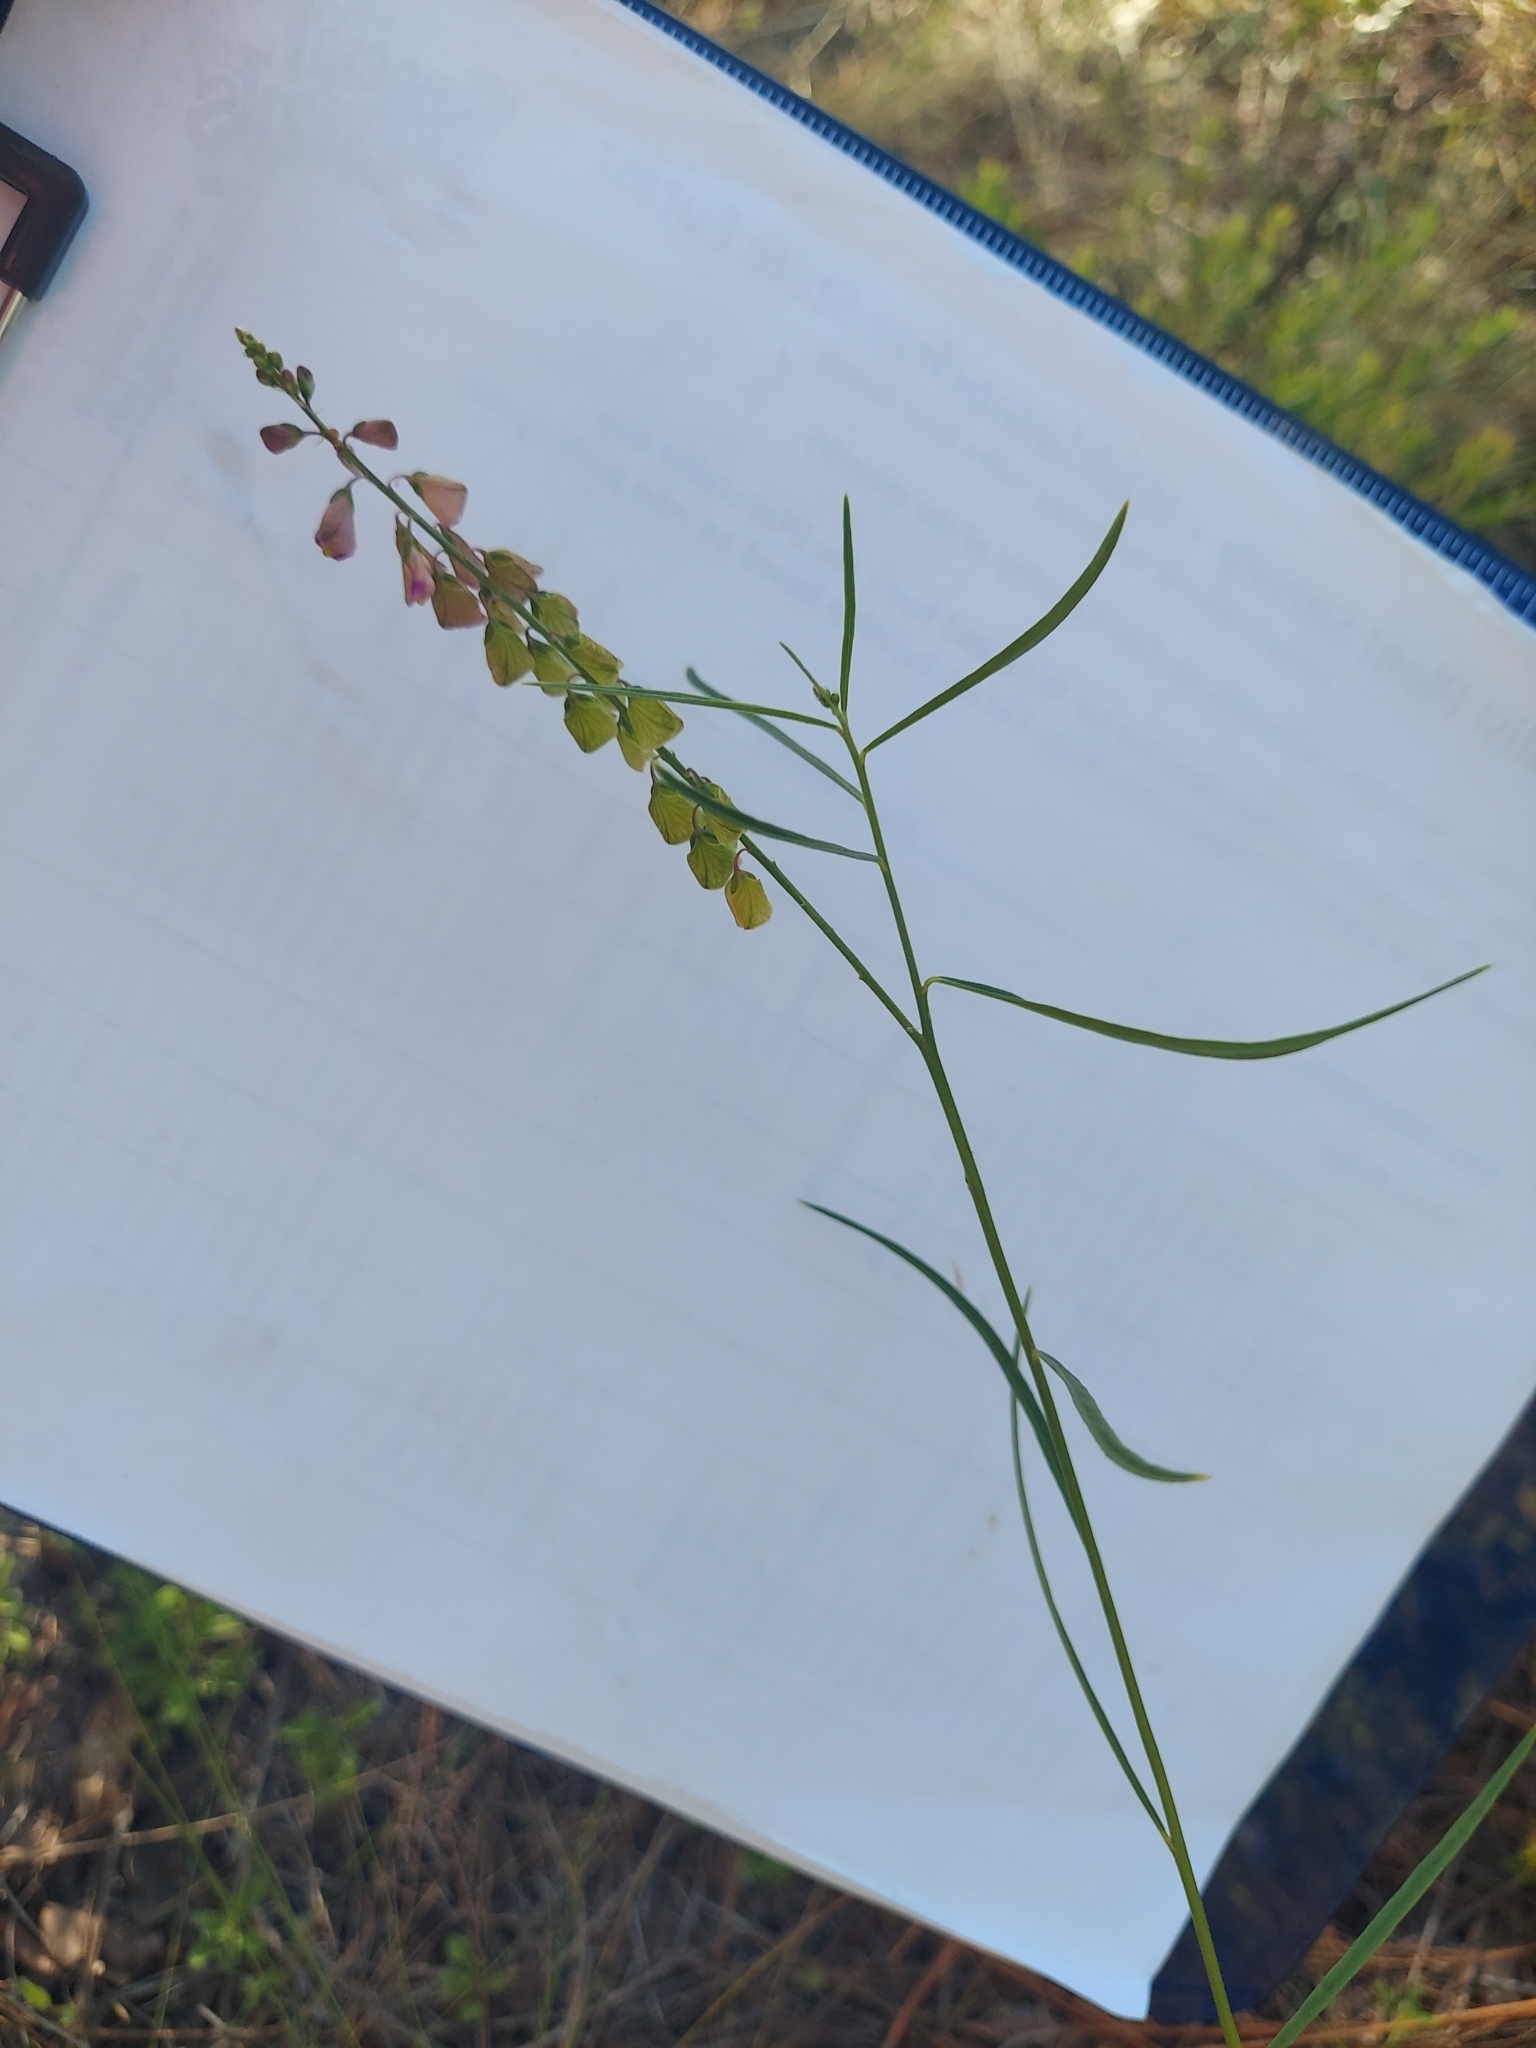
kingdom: Plantae
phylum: Tracheophyta
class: Magnoliopsida
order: Fabales
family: Polygalaceae
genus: Asemeia
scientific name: Asemeia grandiflora
